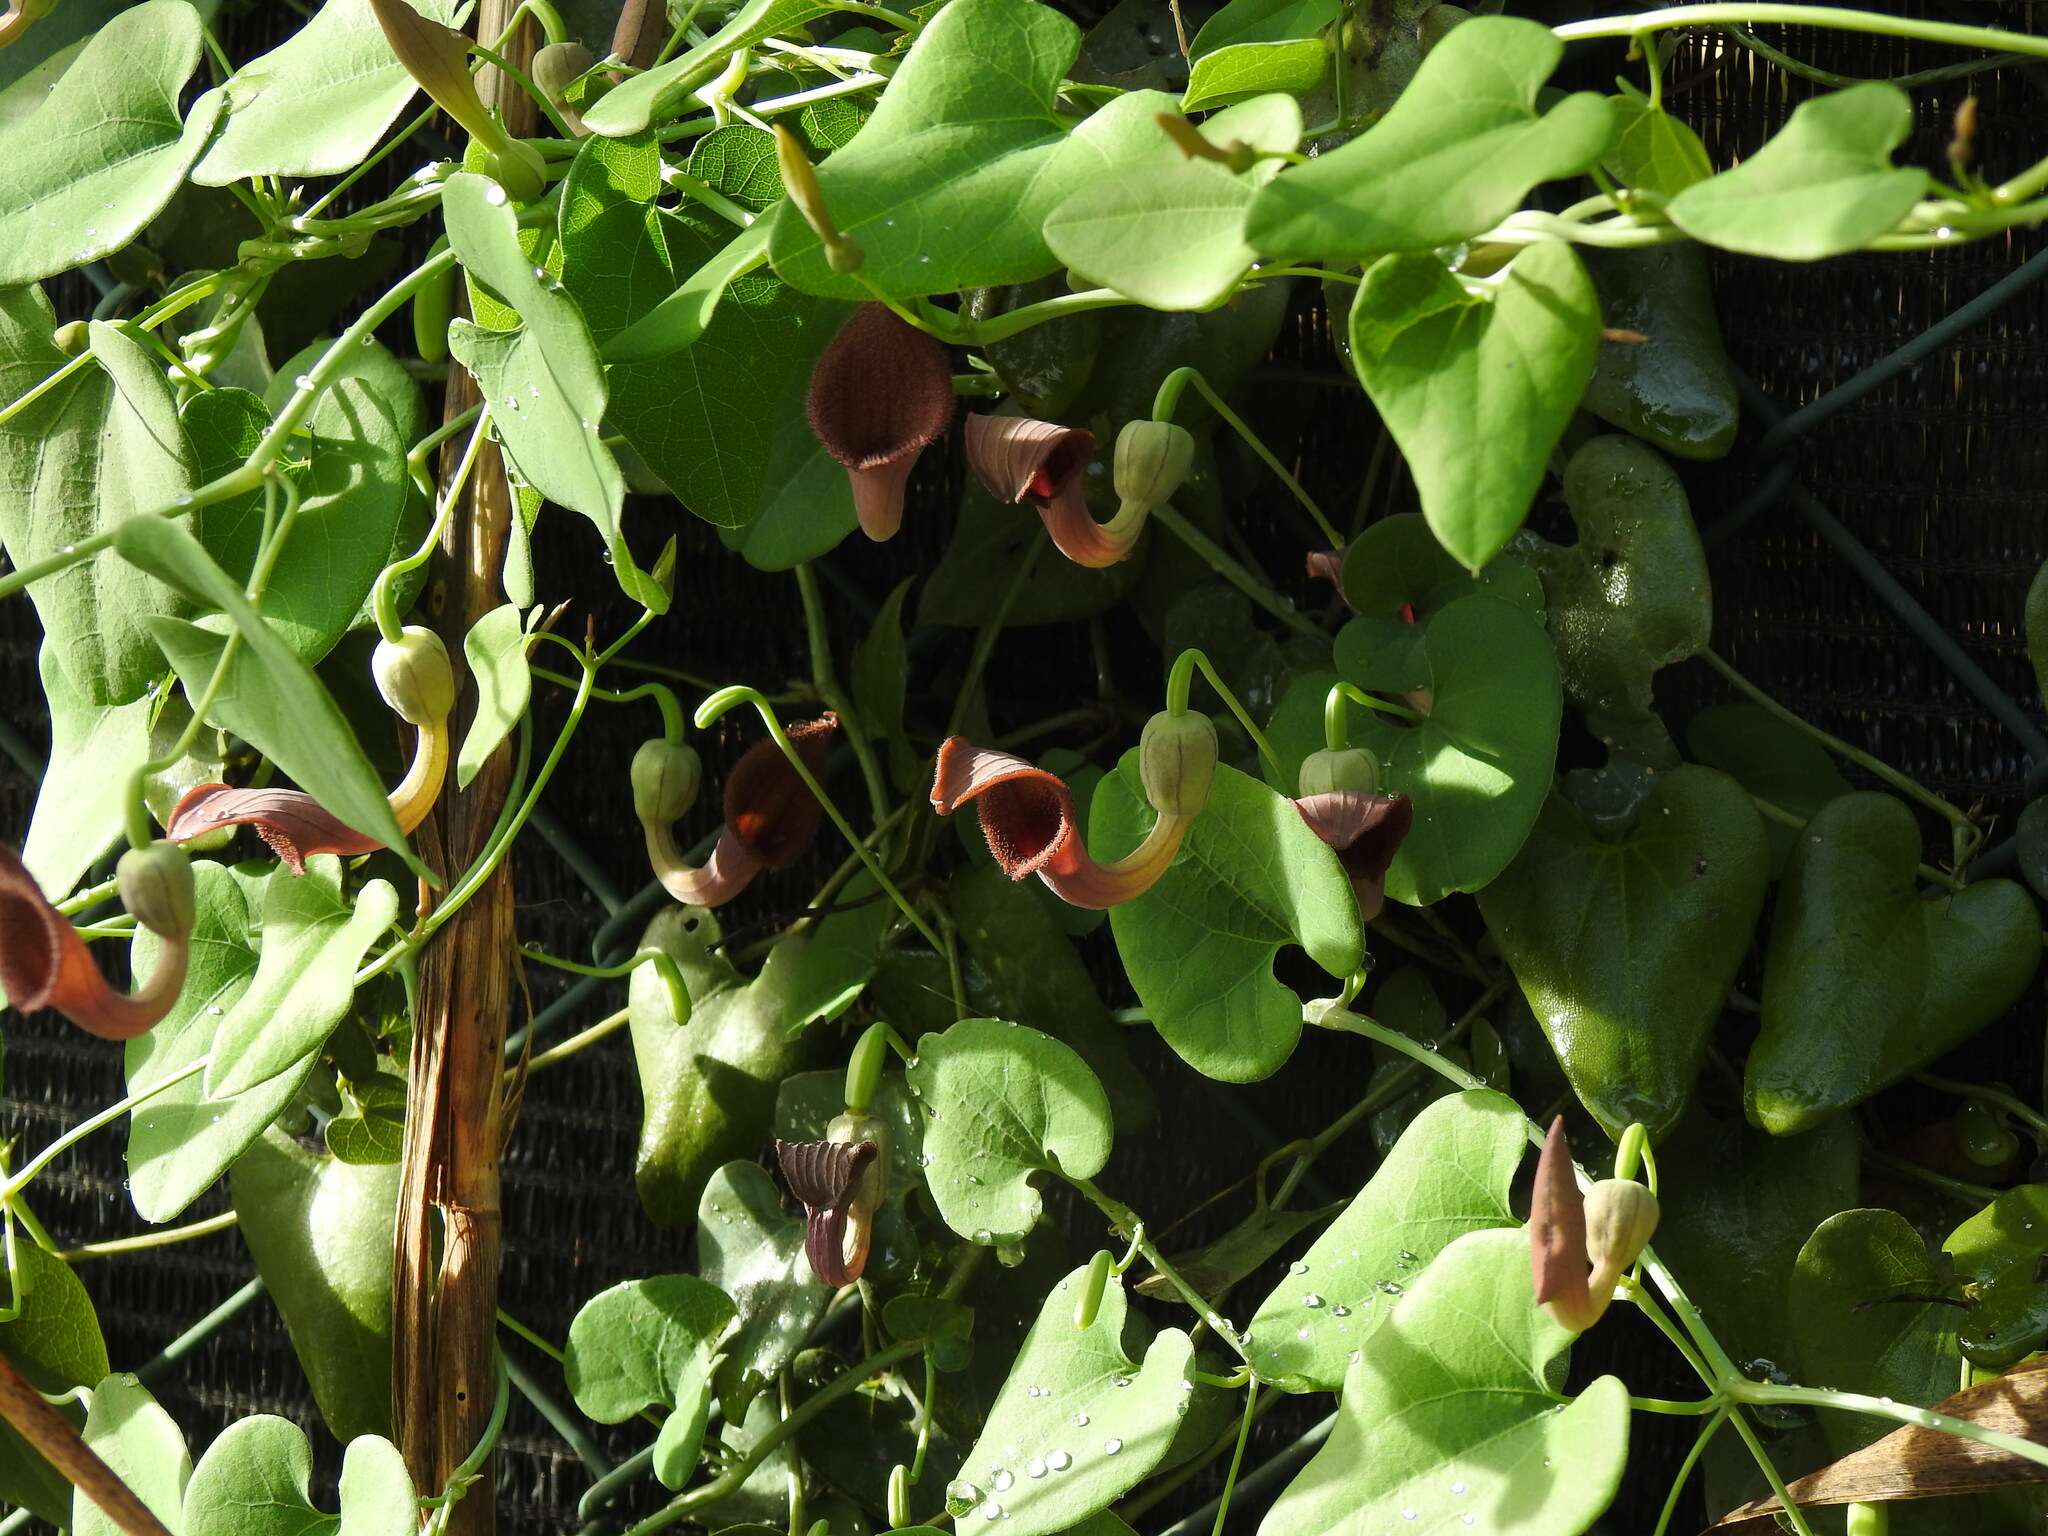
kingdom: Plantae
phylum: Tracheophyta
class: Magnoliopsida
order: Piperales
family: Aristolochiaceae
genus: Aristolochia
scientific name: Aristolochia baetica
